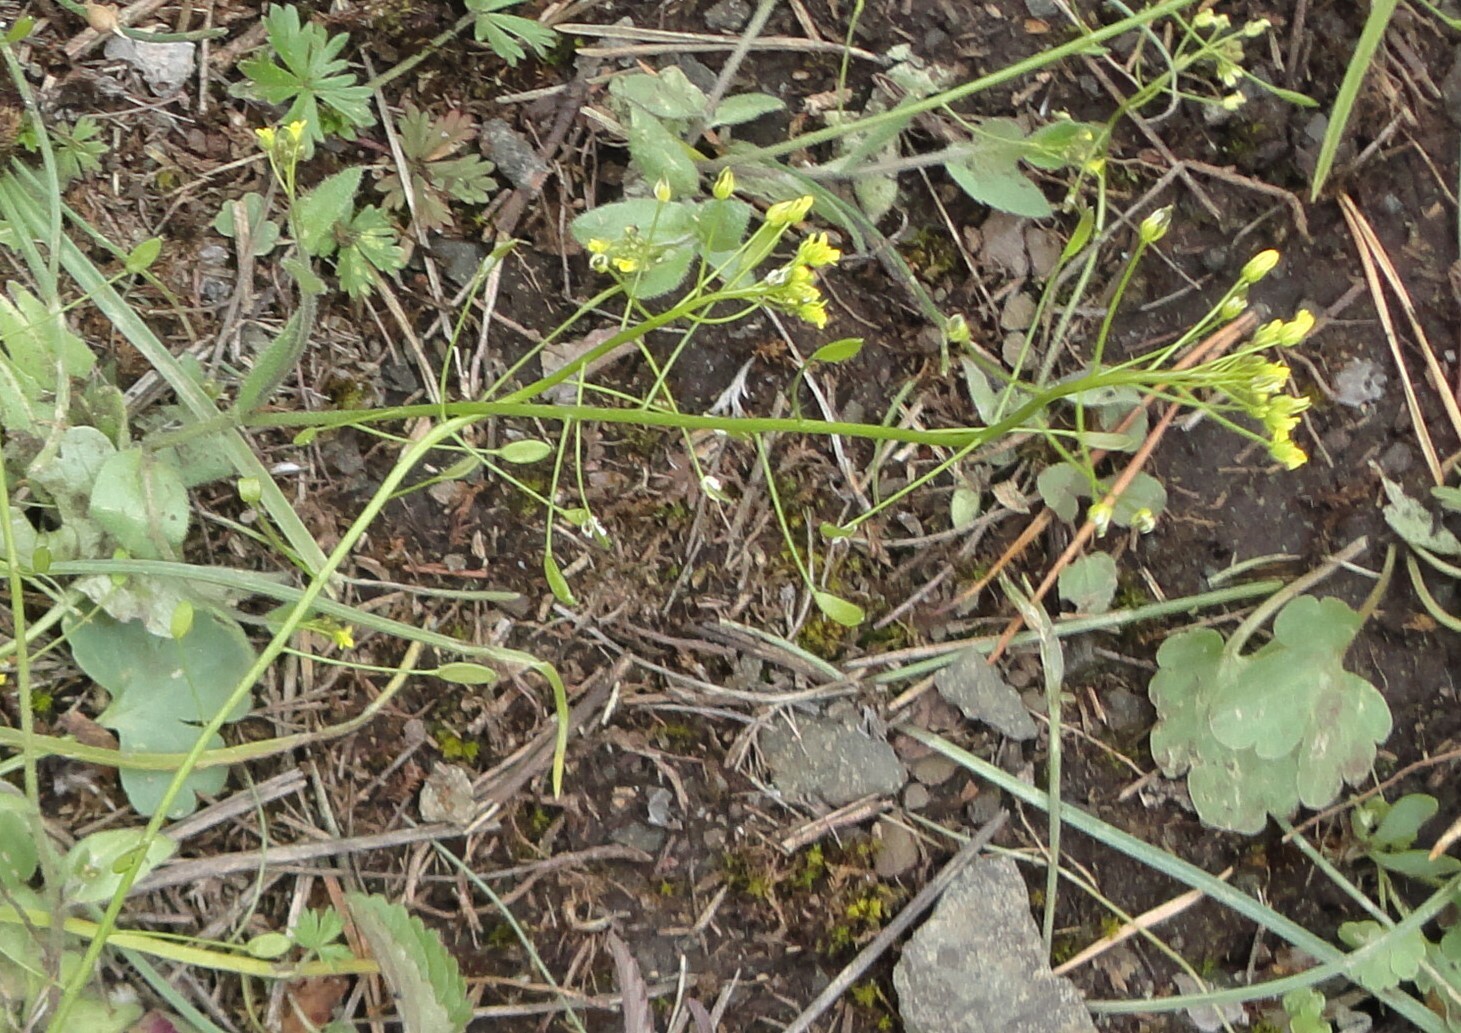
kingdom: Plantae
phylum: Tracheophyta
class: Magnoliopsida
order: Brassicales
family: Brassicaceae
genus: Draba
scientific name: Draba nemorosa
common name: Wood whitlow-grass
